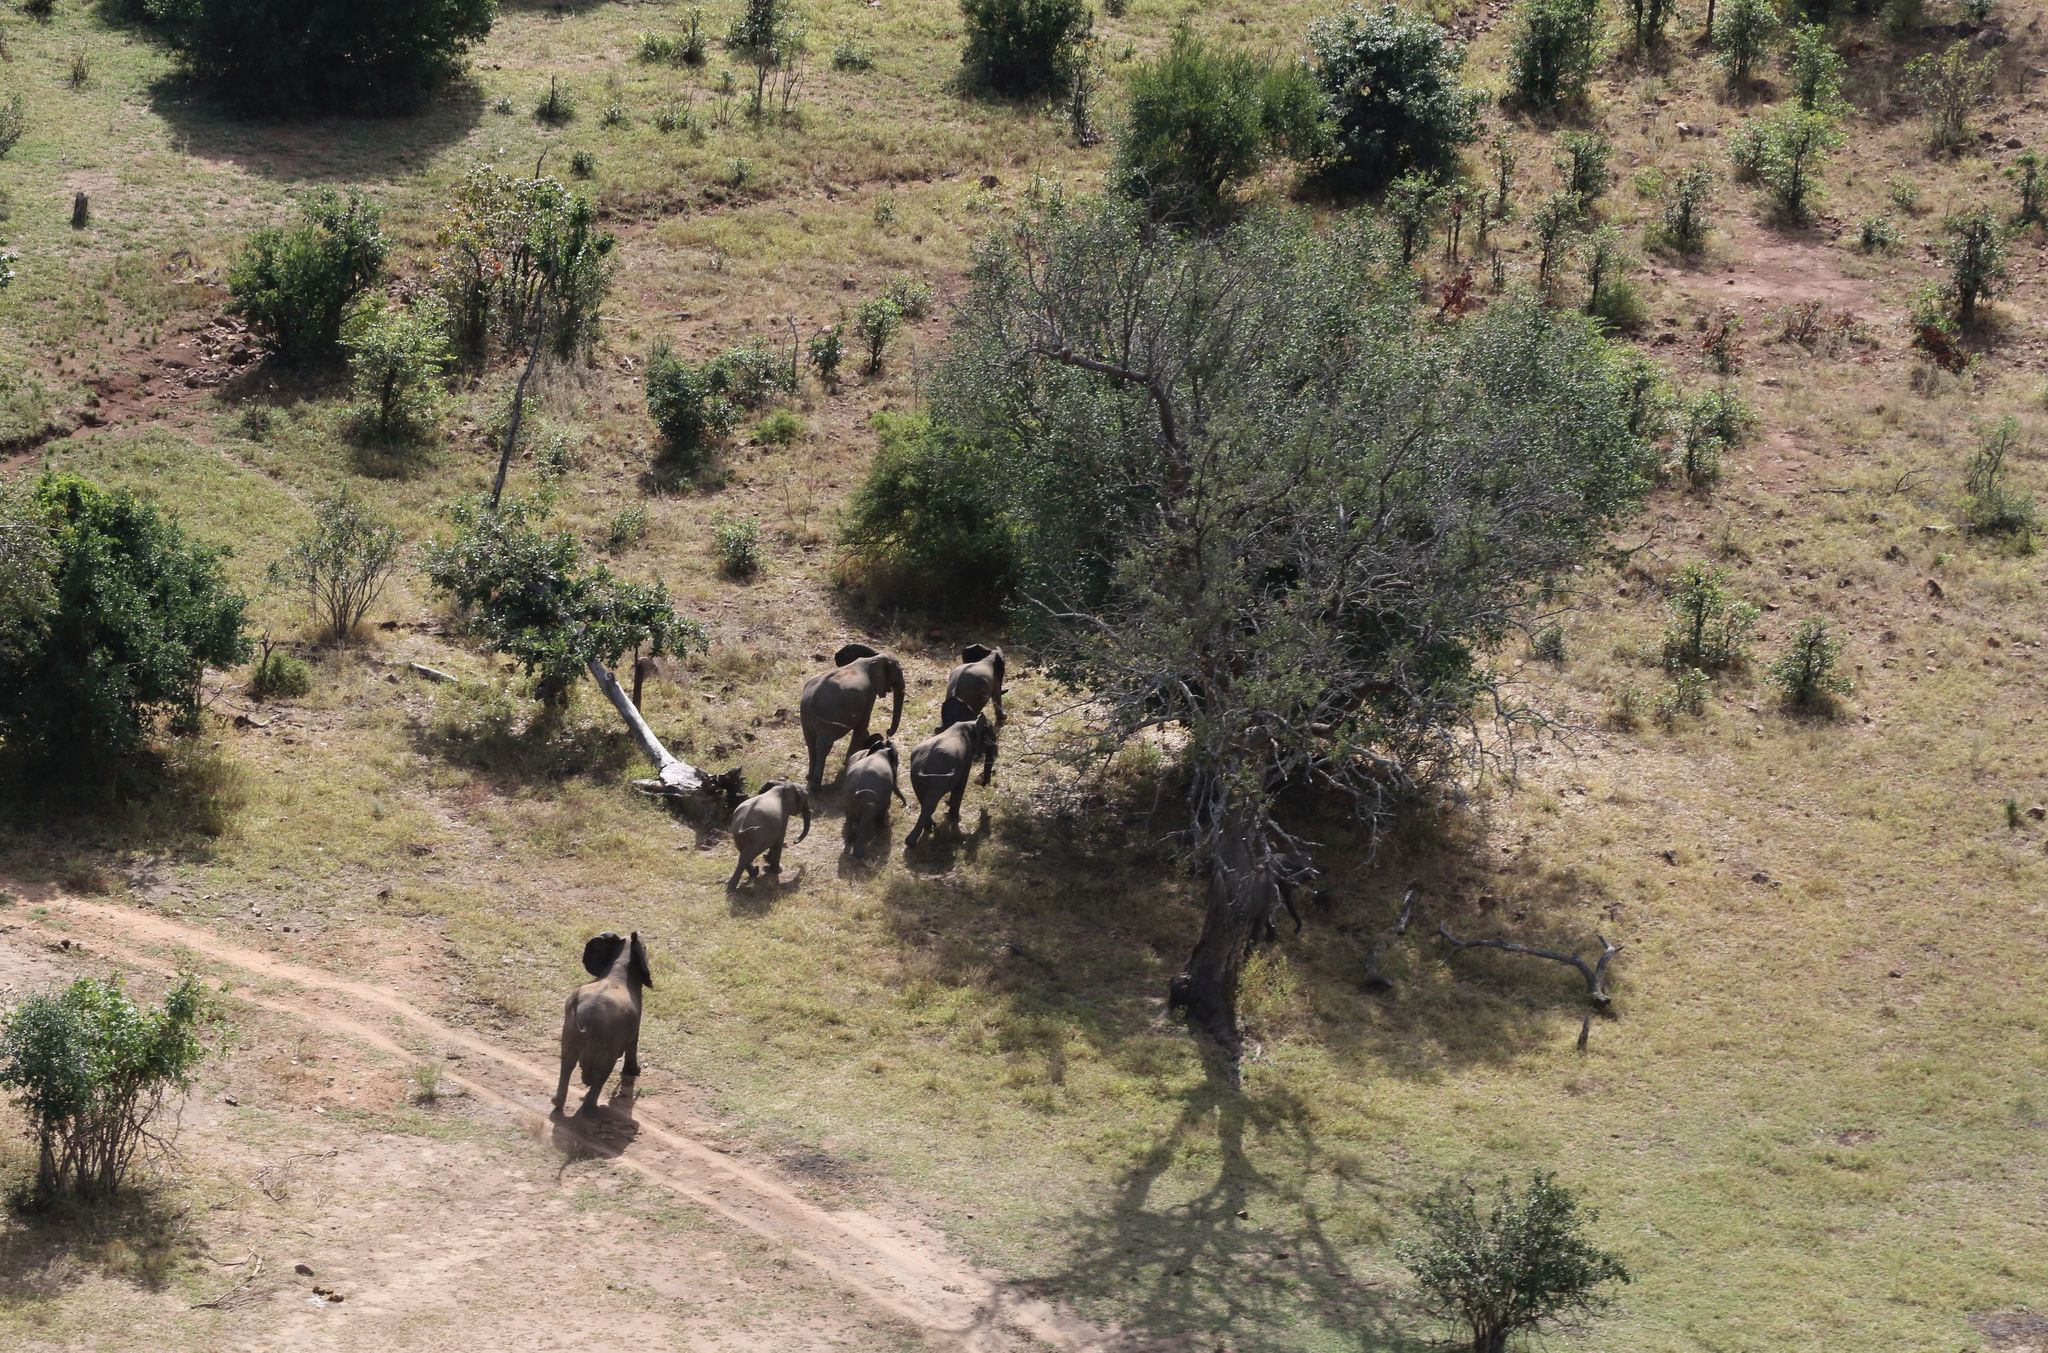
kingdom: Animalia
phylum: Chordata
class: Mammalia
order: Proboscidea
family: Elephantidae
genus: Loxodonta
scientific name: Loxodonta africana
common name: African elephant
